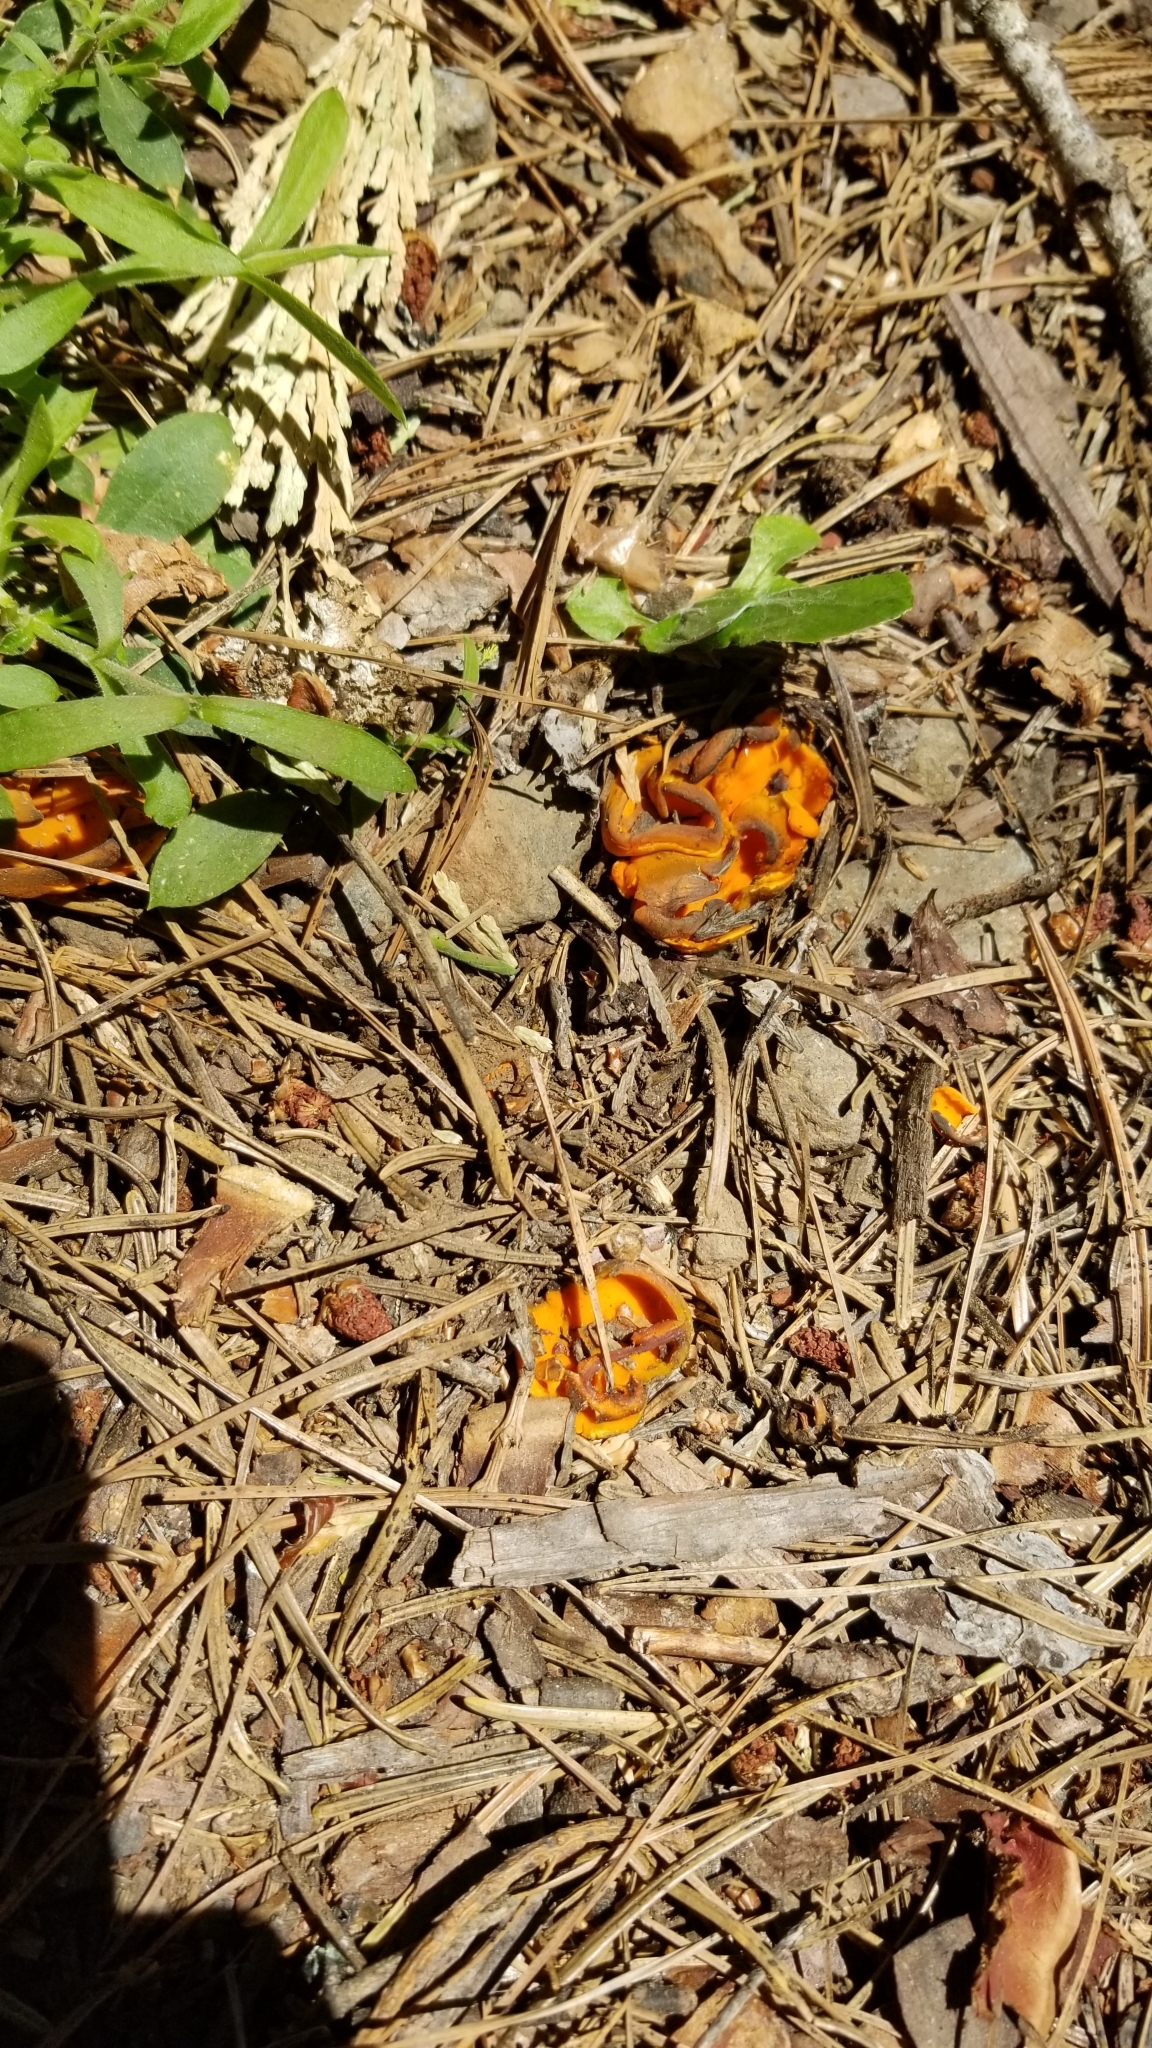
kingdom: Fungi
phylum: Ascomycota
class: Pezizomycetes
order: Pezizales
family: Caloscyphaceae
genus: Caloscypha
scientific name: Caloscypha fulgens
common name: Golden cup
